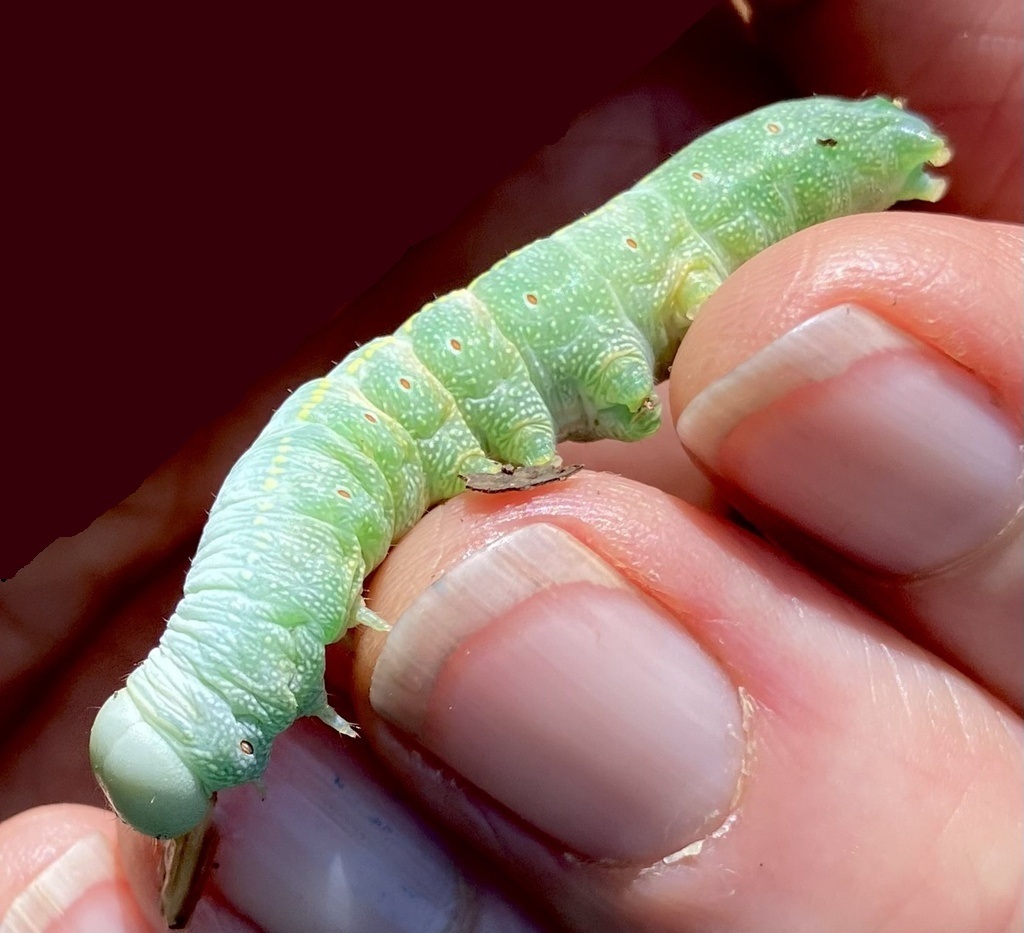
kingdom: Animalia
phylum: Arthropoda
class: Insecta
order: Lepidoptera
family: Notodontidae
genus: Nadata
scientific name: Nadata gibbosa
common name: White-dotted prominent
